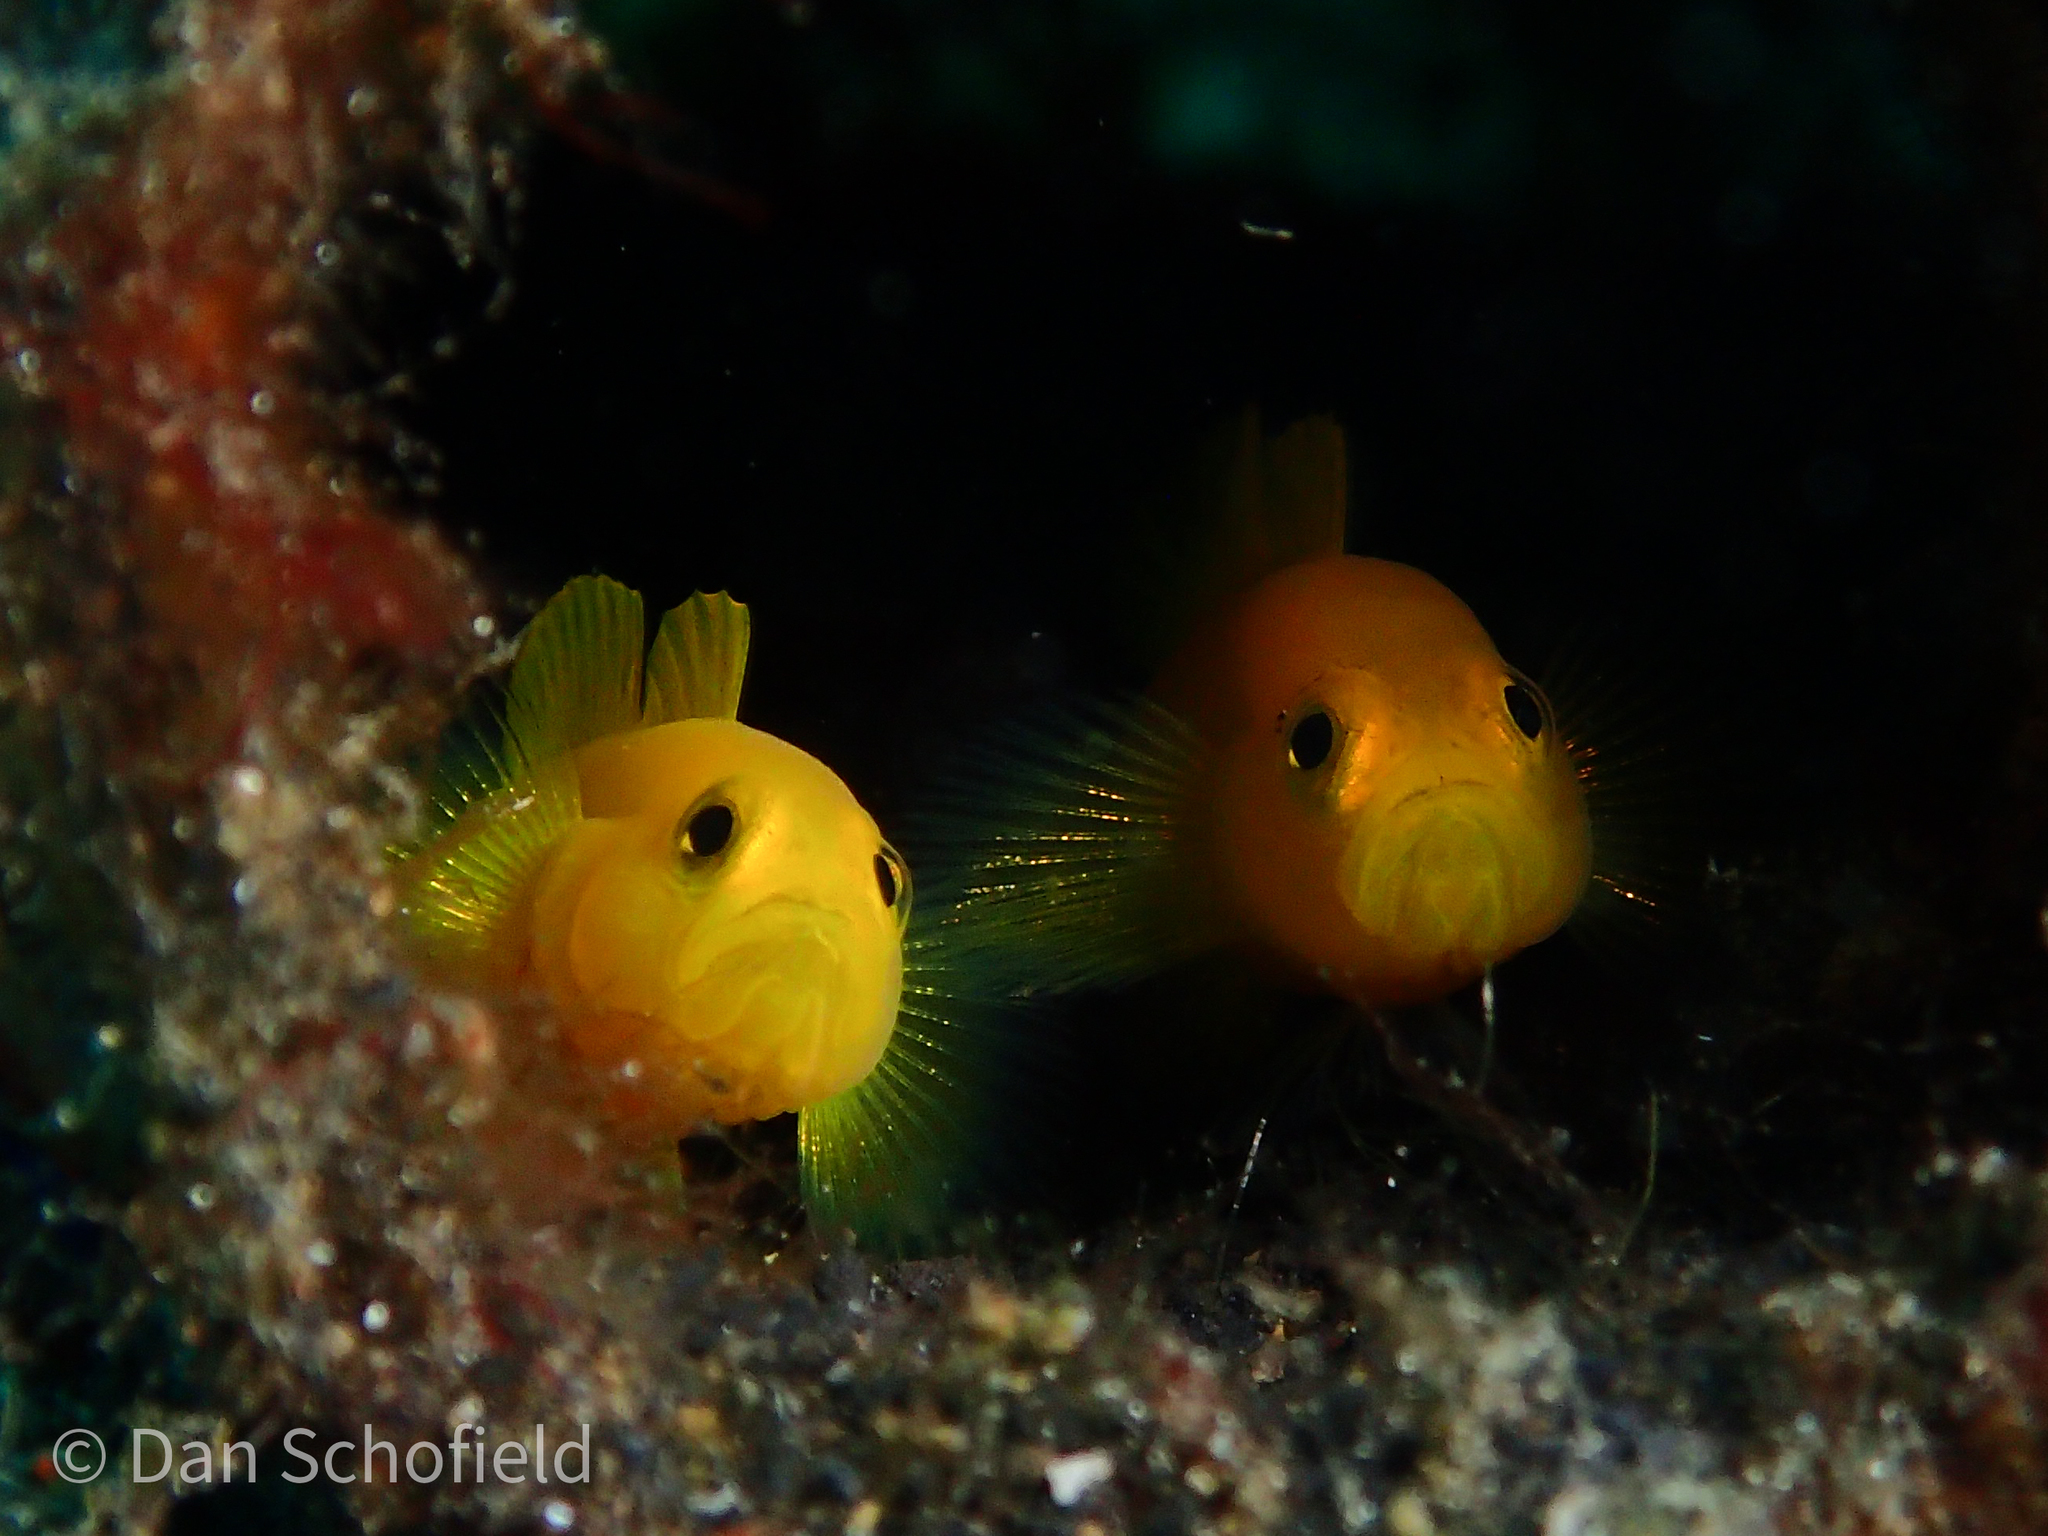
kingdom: Animalia
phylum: Chordata
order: Perciformes
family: Gobiidae
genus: Lubricogobius
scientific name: Lubricogobius exiguus
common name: Yellow pygmy-goby
